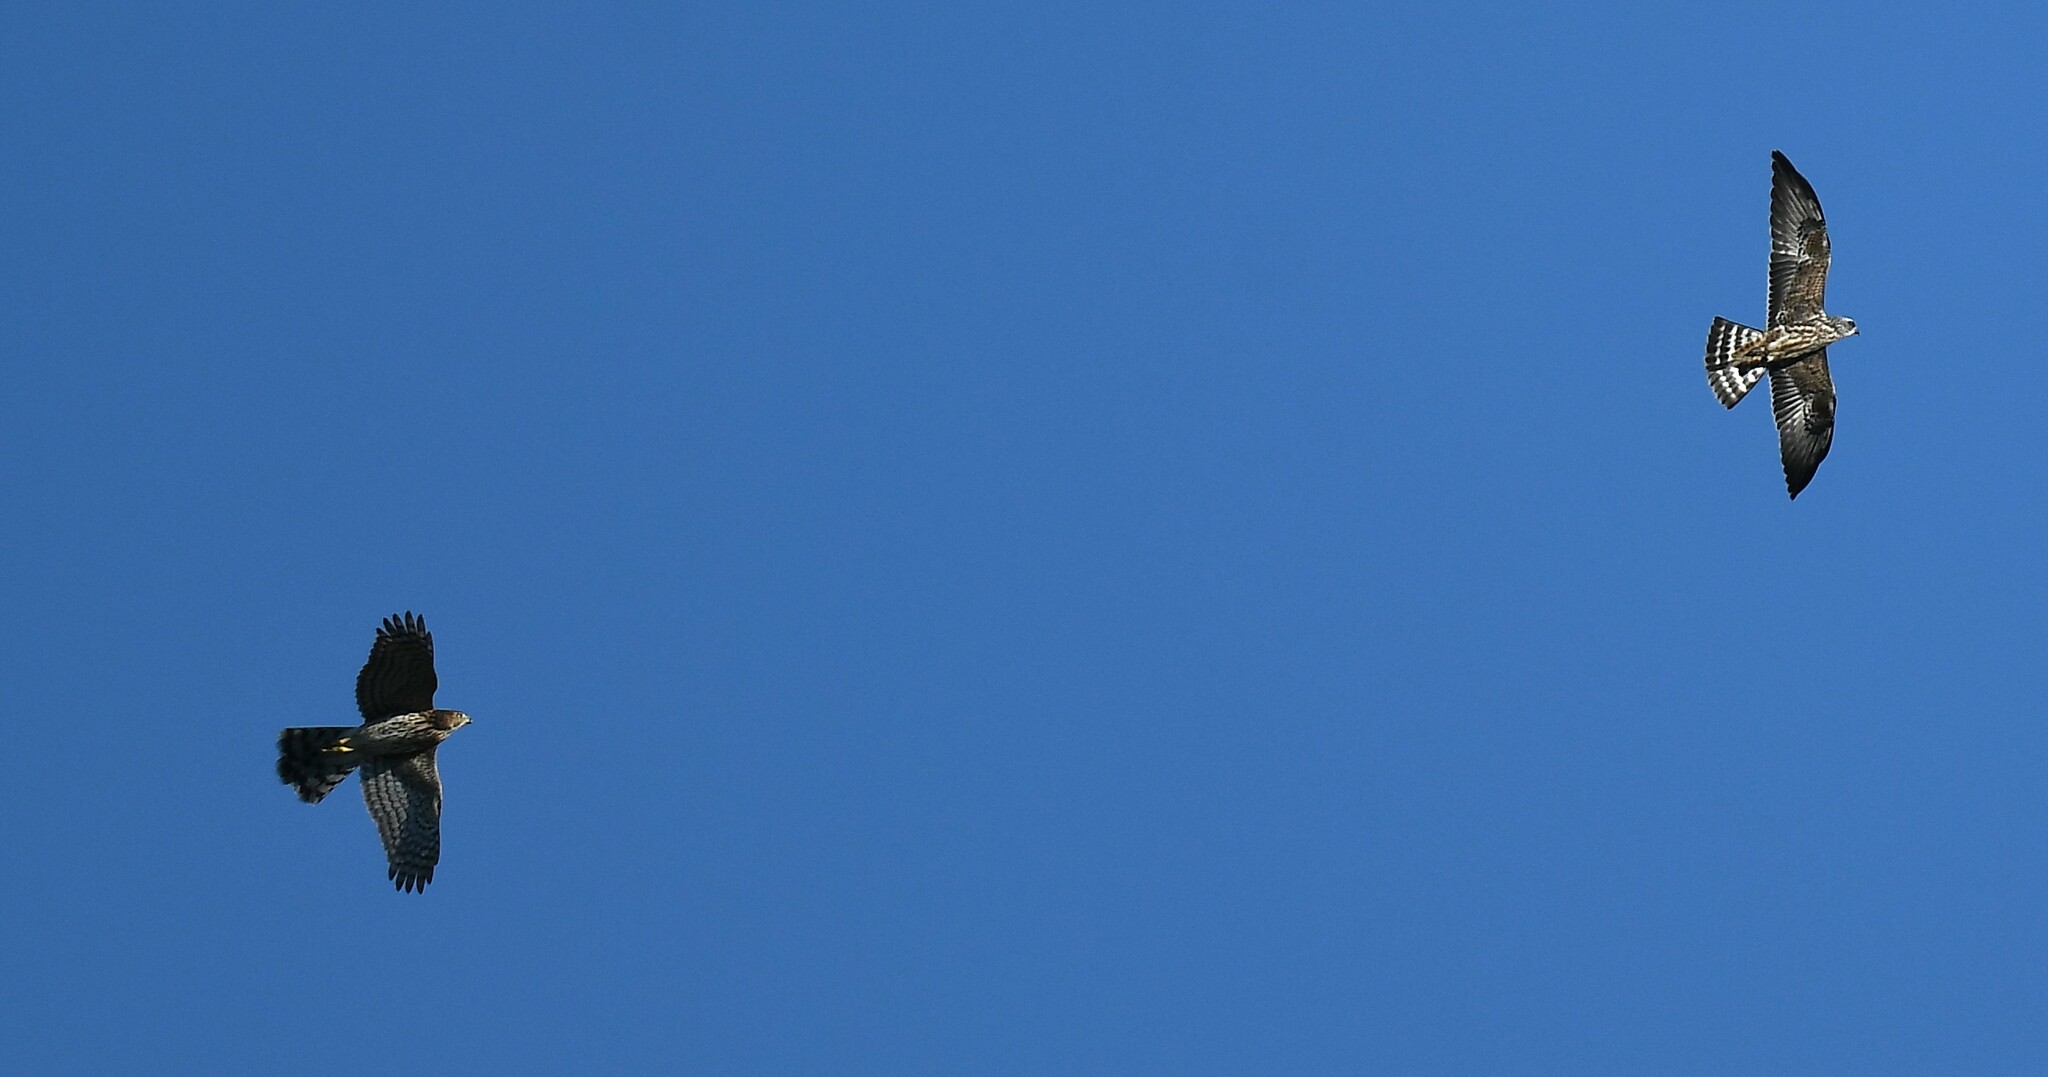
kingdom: Animalia
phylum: Chordata
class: Aves
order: Accipitriformes
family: Accipitridae
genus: Ictinia
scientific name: Ictinia mississippiensis
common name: Mississippi kite
